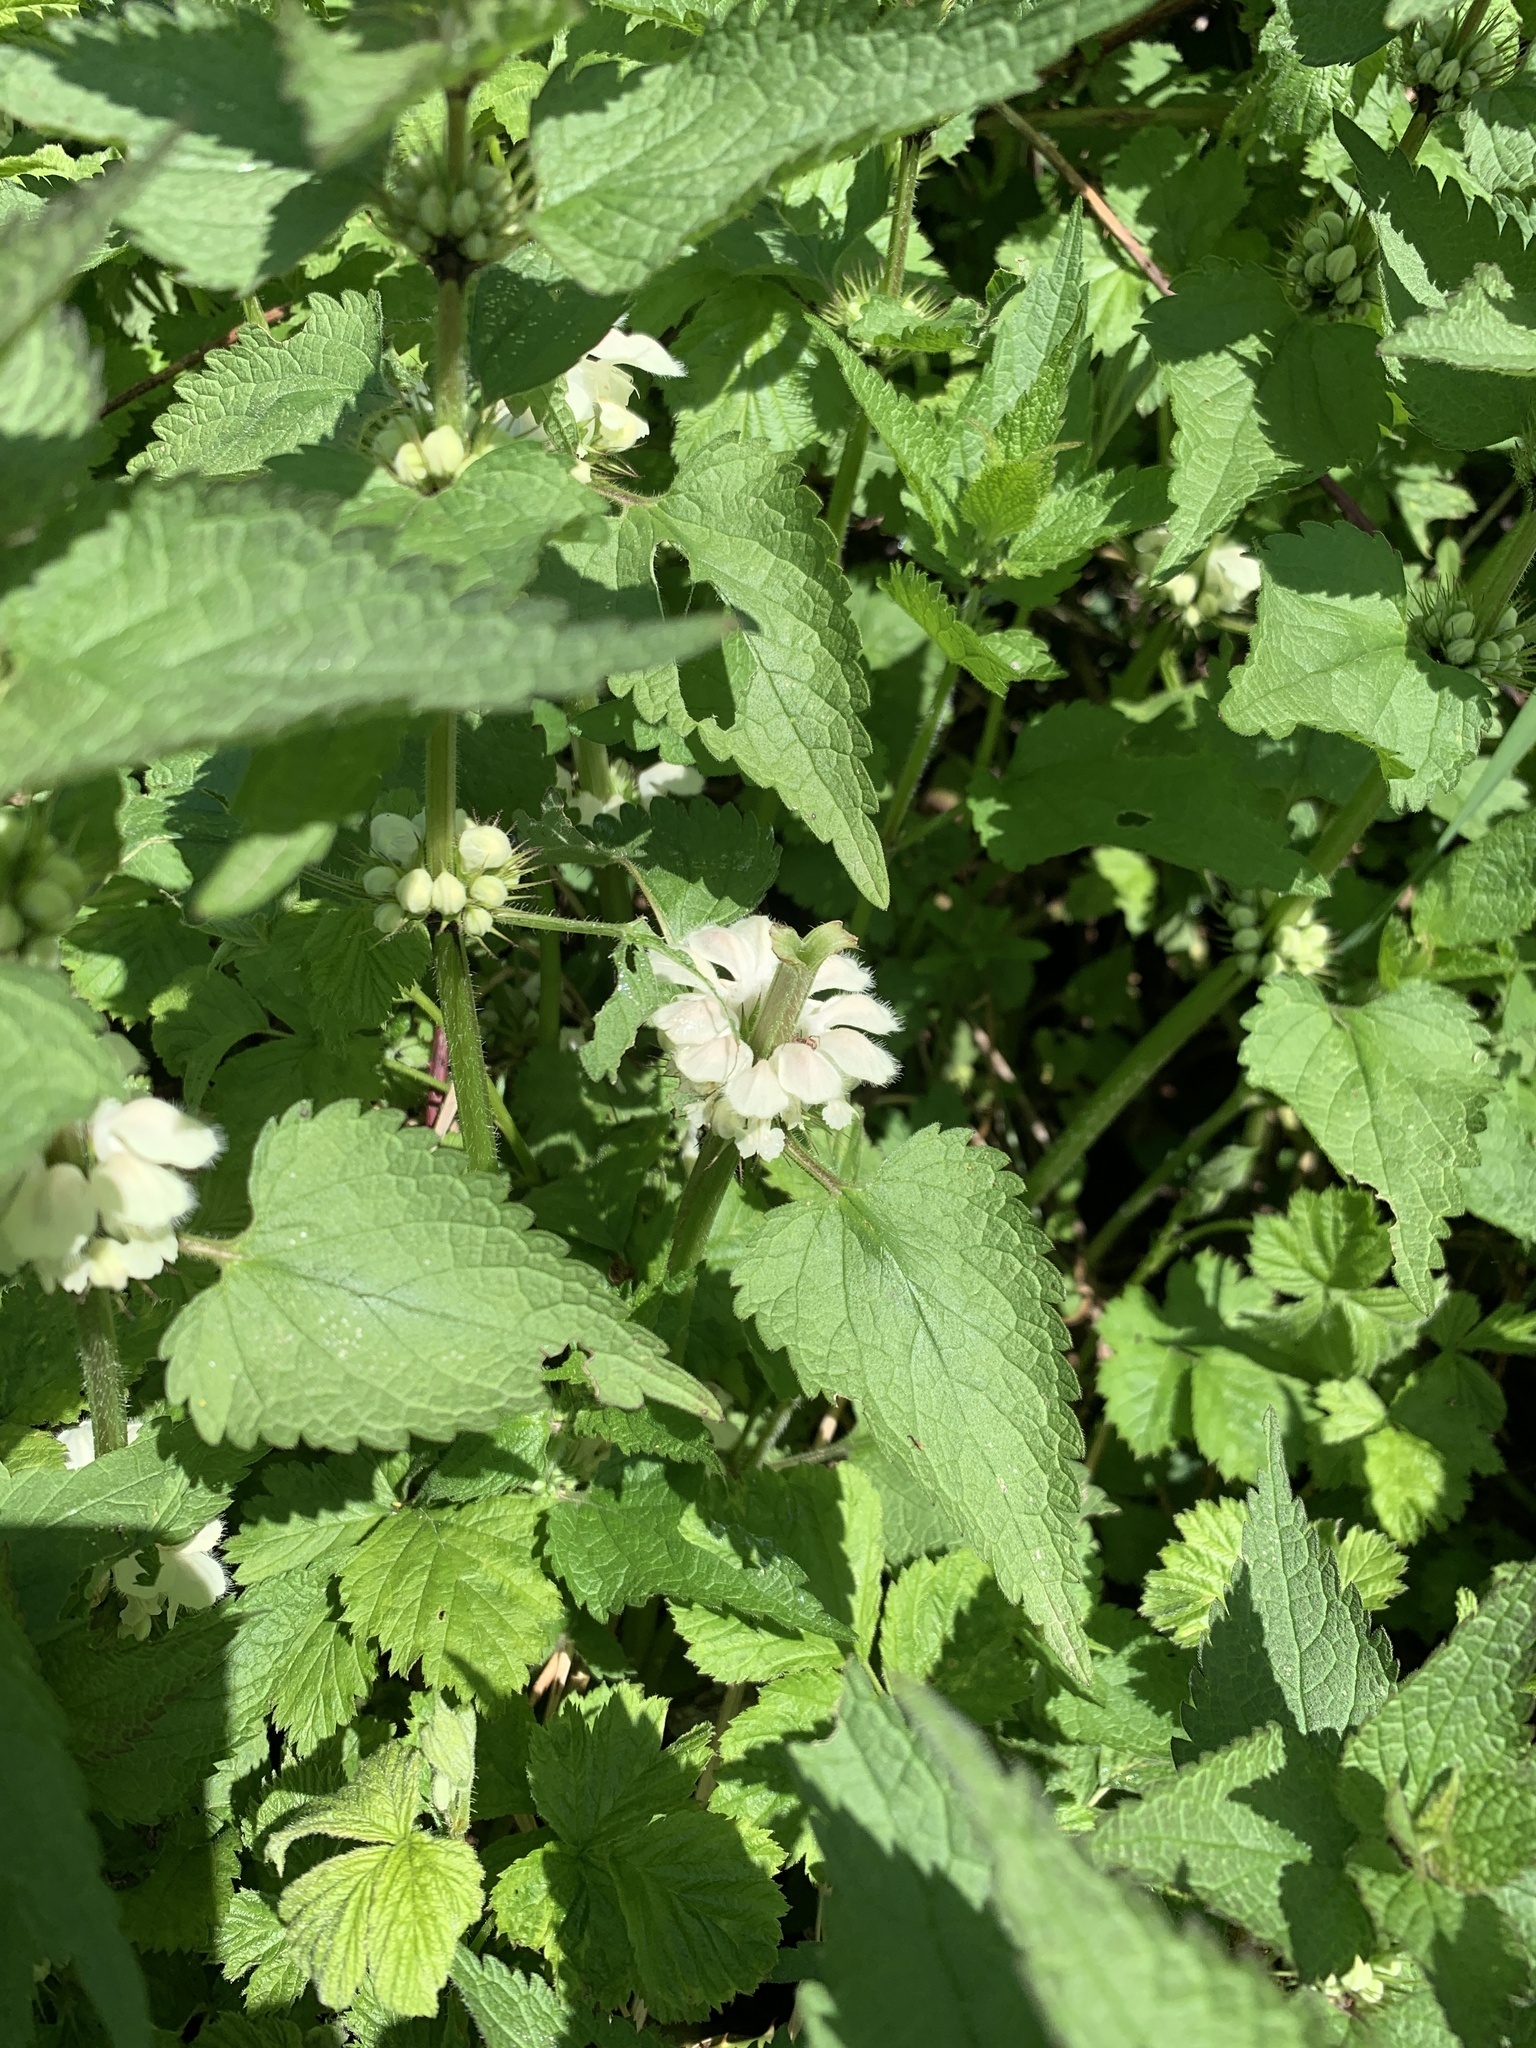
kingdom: Plantae
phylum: Tracheophyta
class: Magnoliopsida
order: Lamiales
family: Lamiaceae
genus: Lamium
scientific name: Lamium album
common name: White dead-nettle
